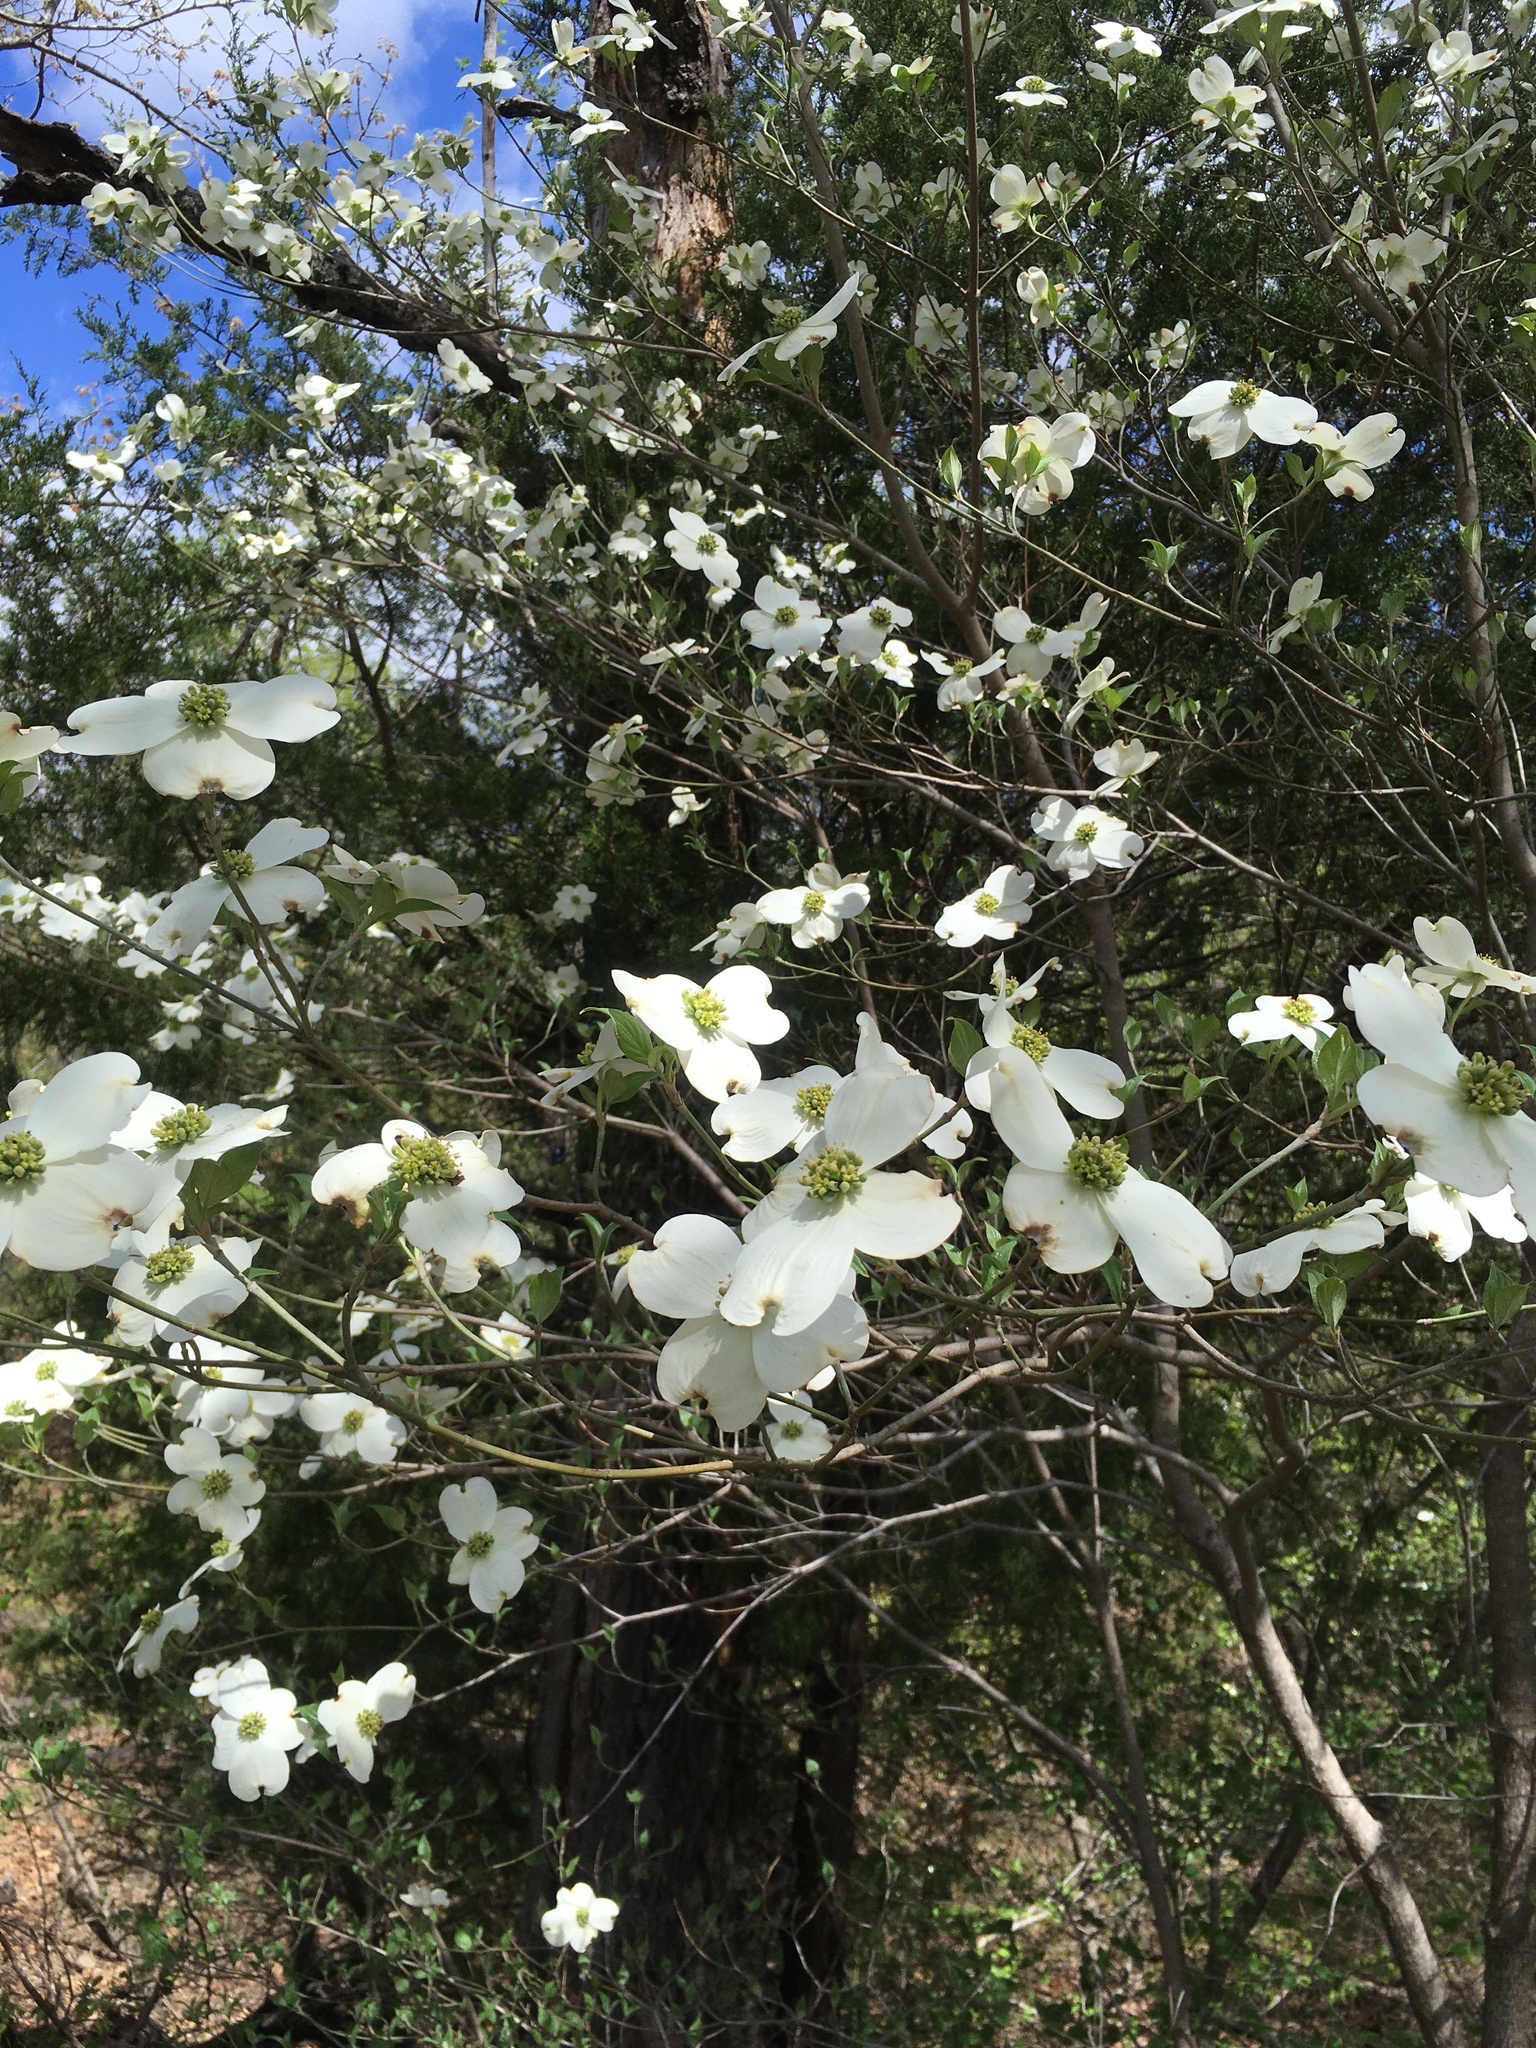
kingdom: Plantae
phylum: Tracheophyta
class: Magnoliopsida
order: Cornales
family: Cornaceae
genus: Cornus
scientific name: Cornus florida
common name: Flowering dogwood
